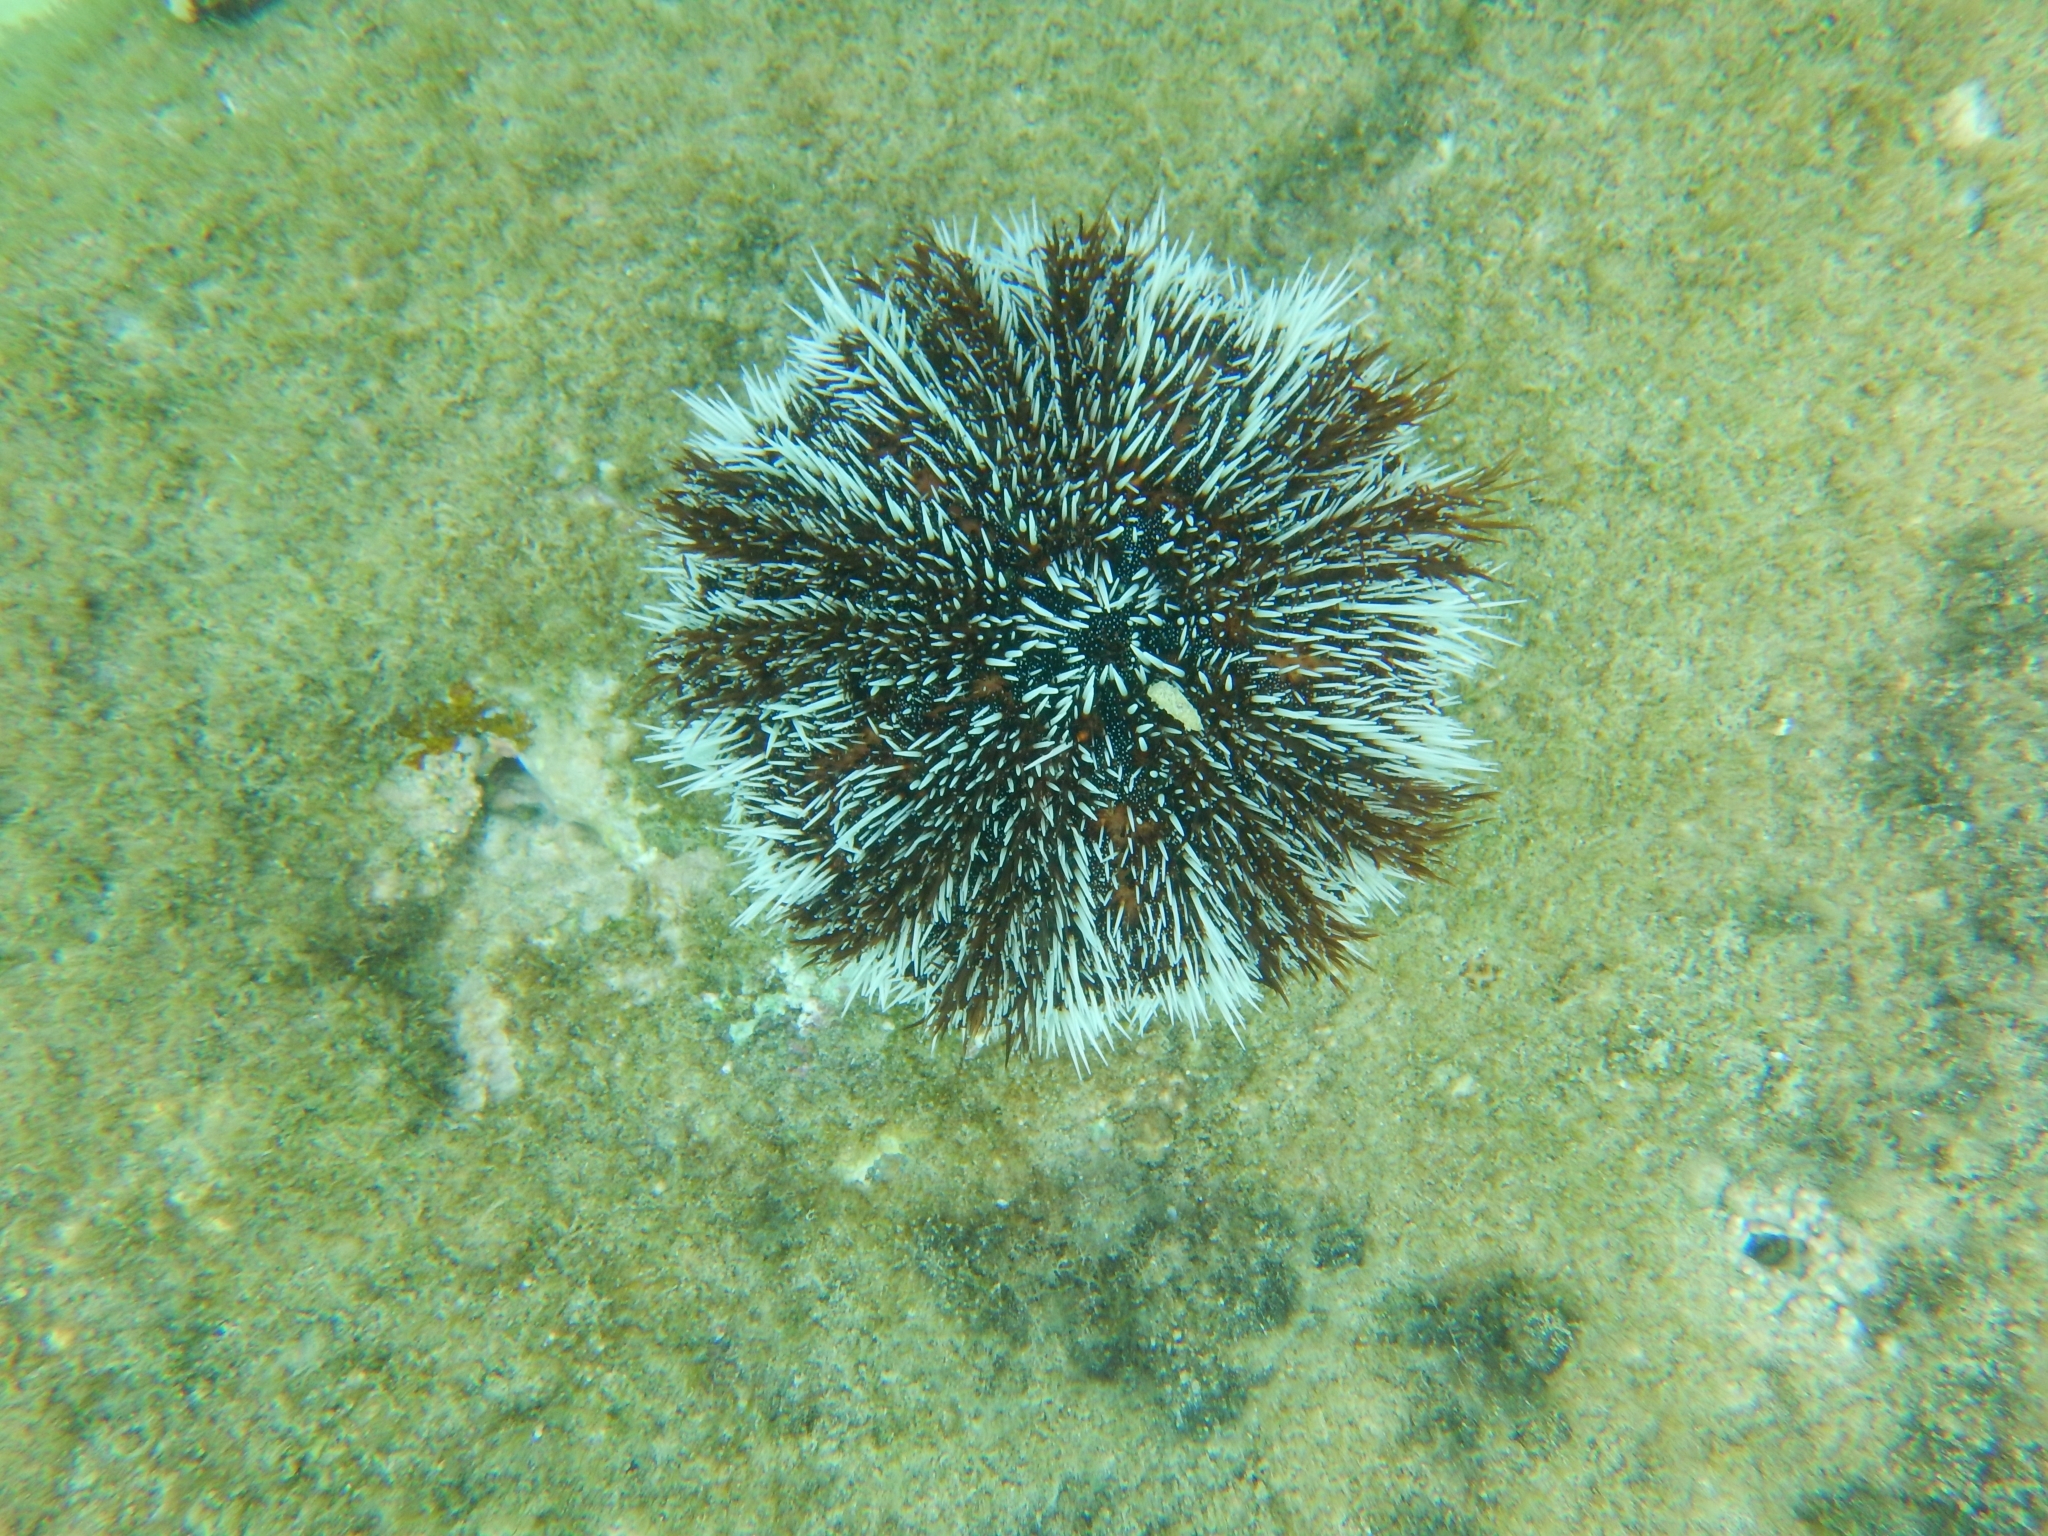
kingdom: Animalia
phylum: Echinodermata
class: Echinoidea
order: Camarodonta
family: Toxopneustidae
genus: Tripneustes
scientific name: Tripneustes ventricosus
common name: West indian sea egg
